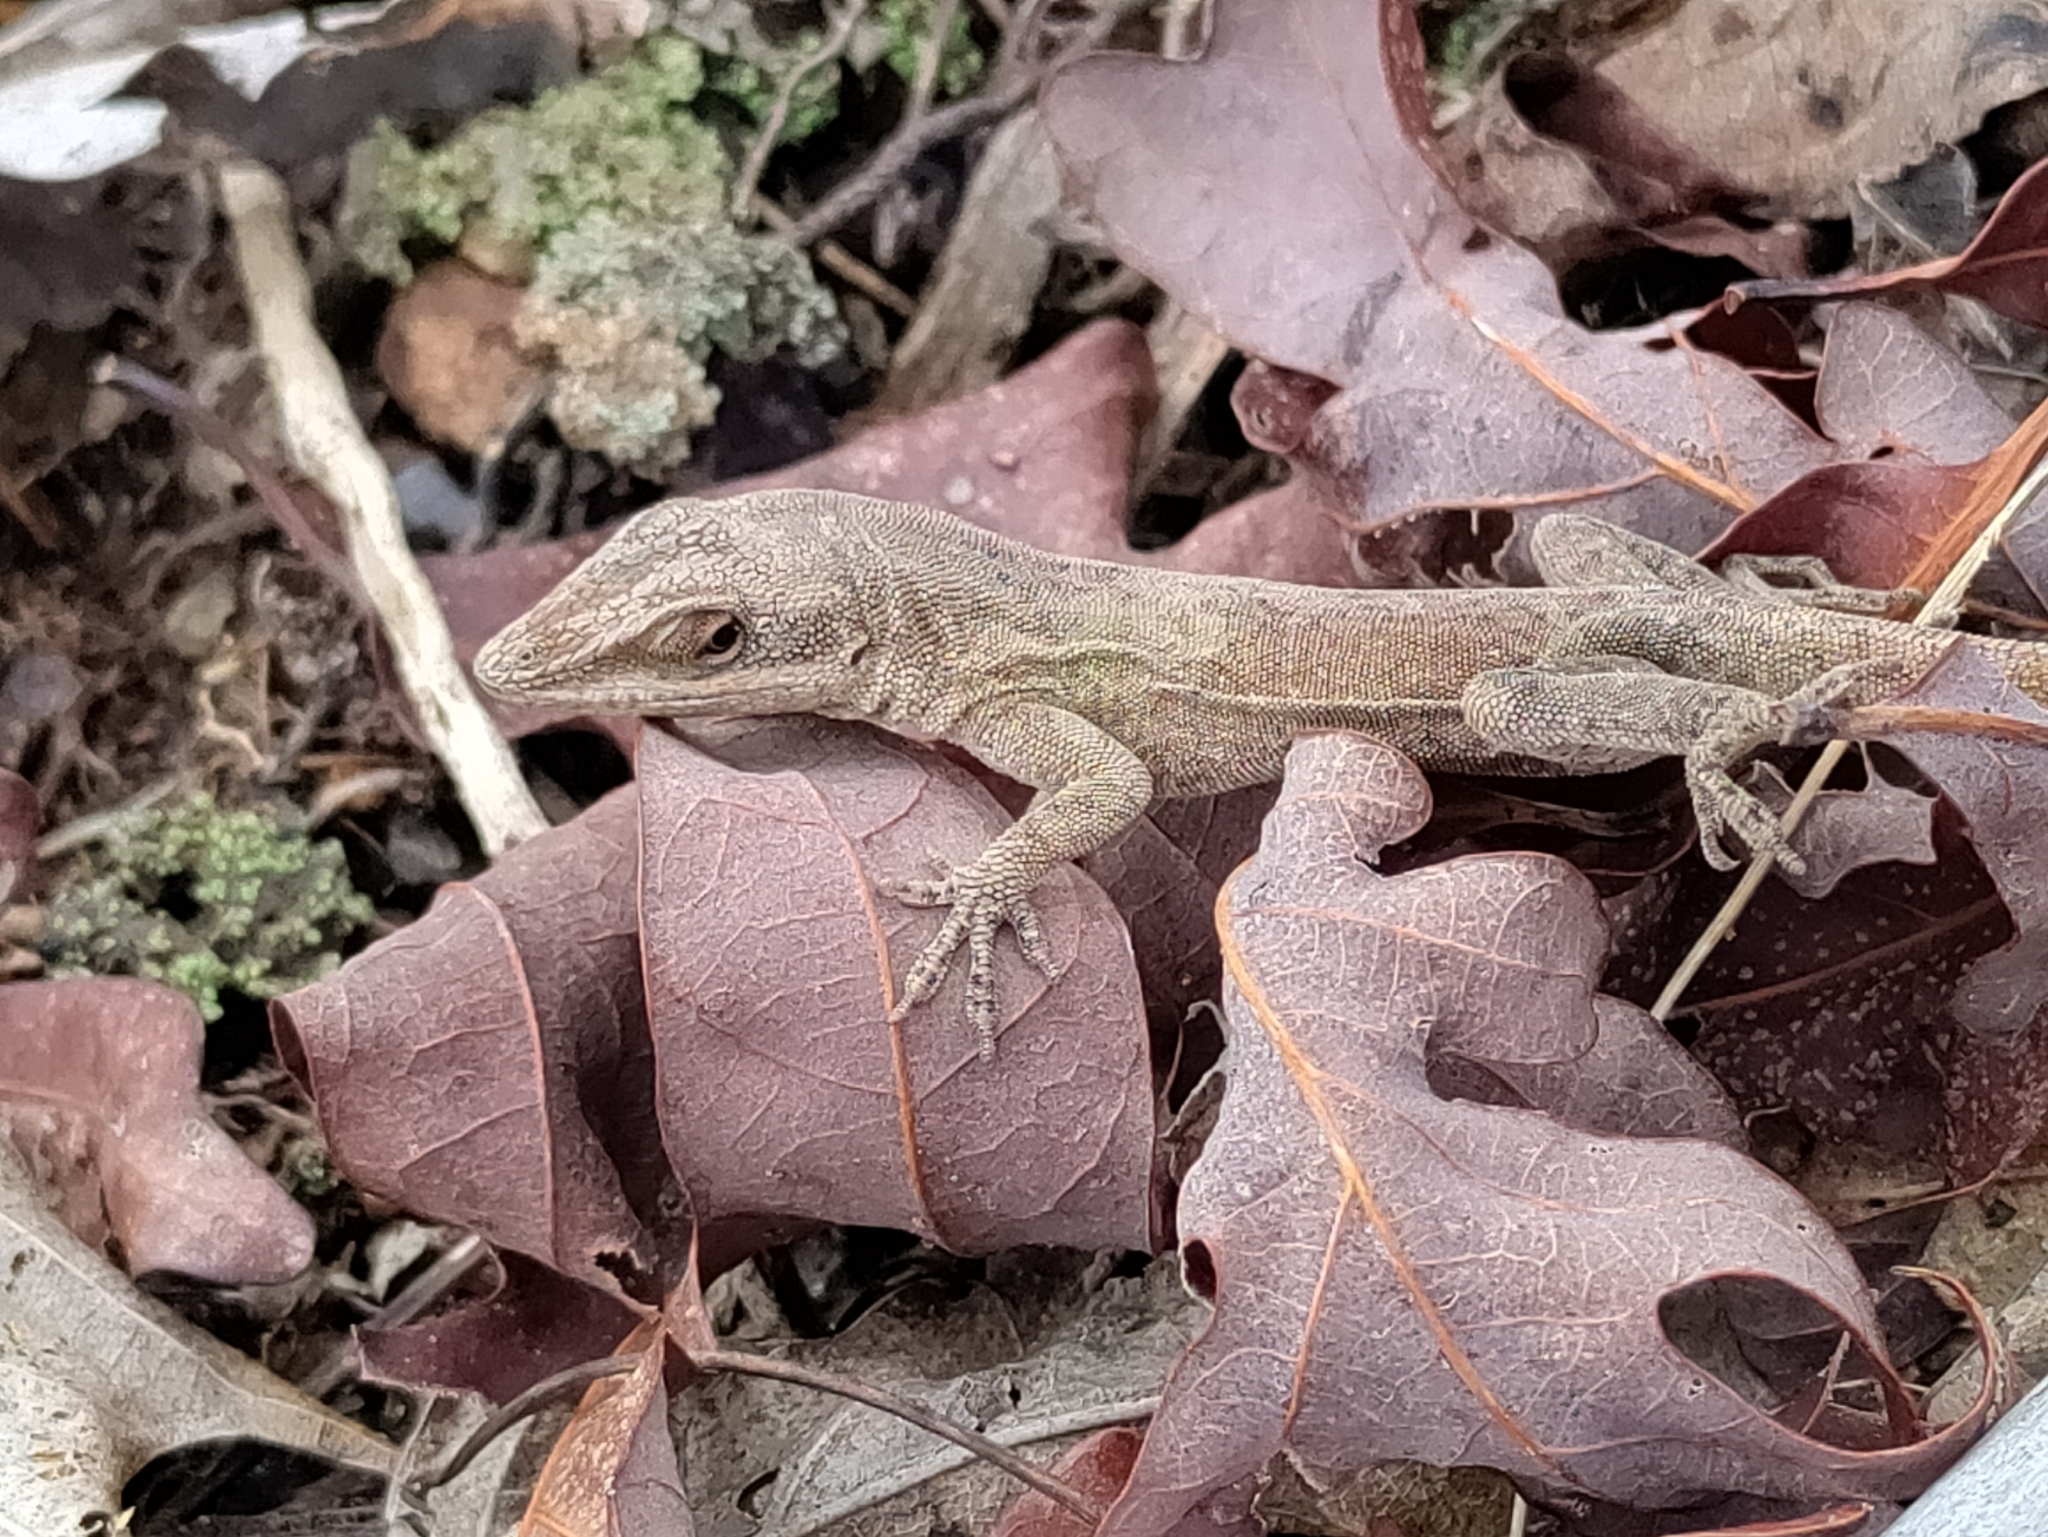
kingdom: Animalia
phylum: Chordata
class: Squamata
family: Dactyloidae
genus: Anolis
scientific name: Anolis carolinensis
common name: Green anole
